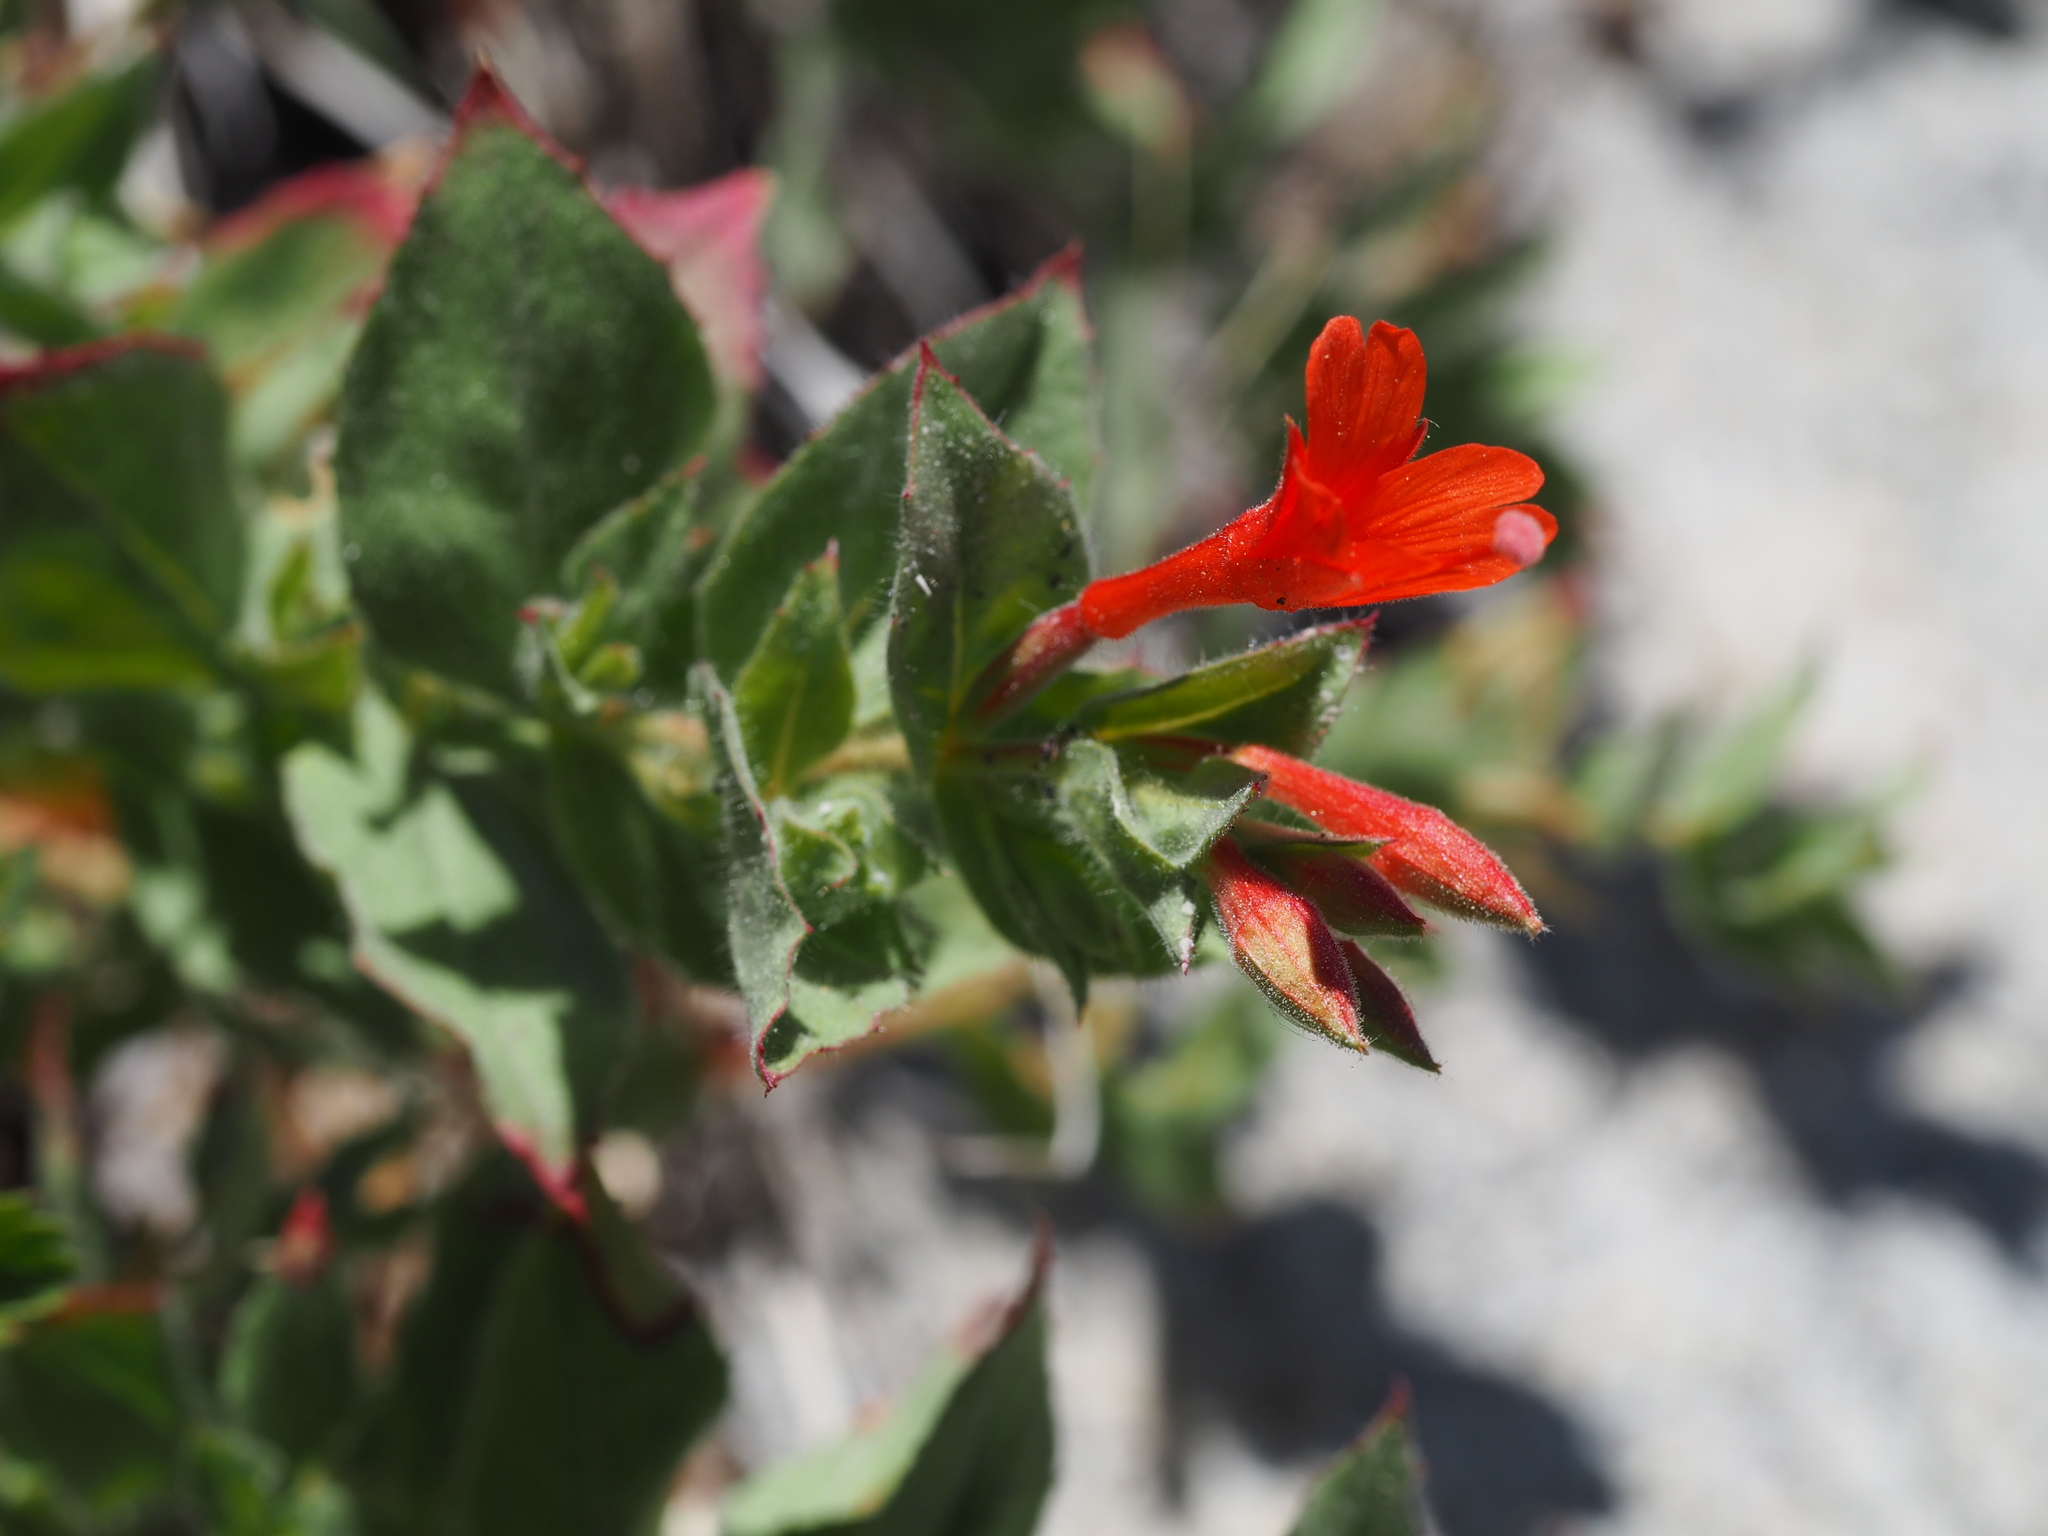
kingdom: Plantae
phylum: Tracheophyta
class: Magnoliopsida
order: Myrtales
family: Onagraceae
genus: Epilobium
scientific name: Epilobium canum
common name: California-fuchsia
